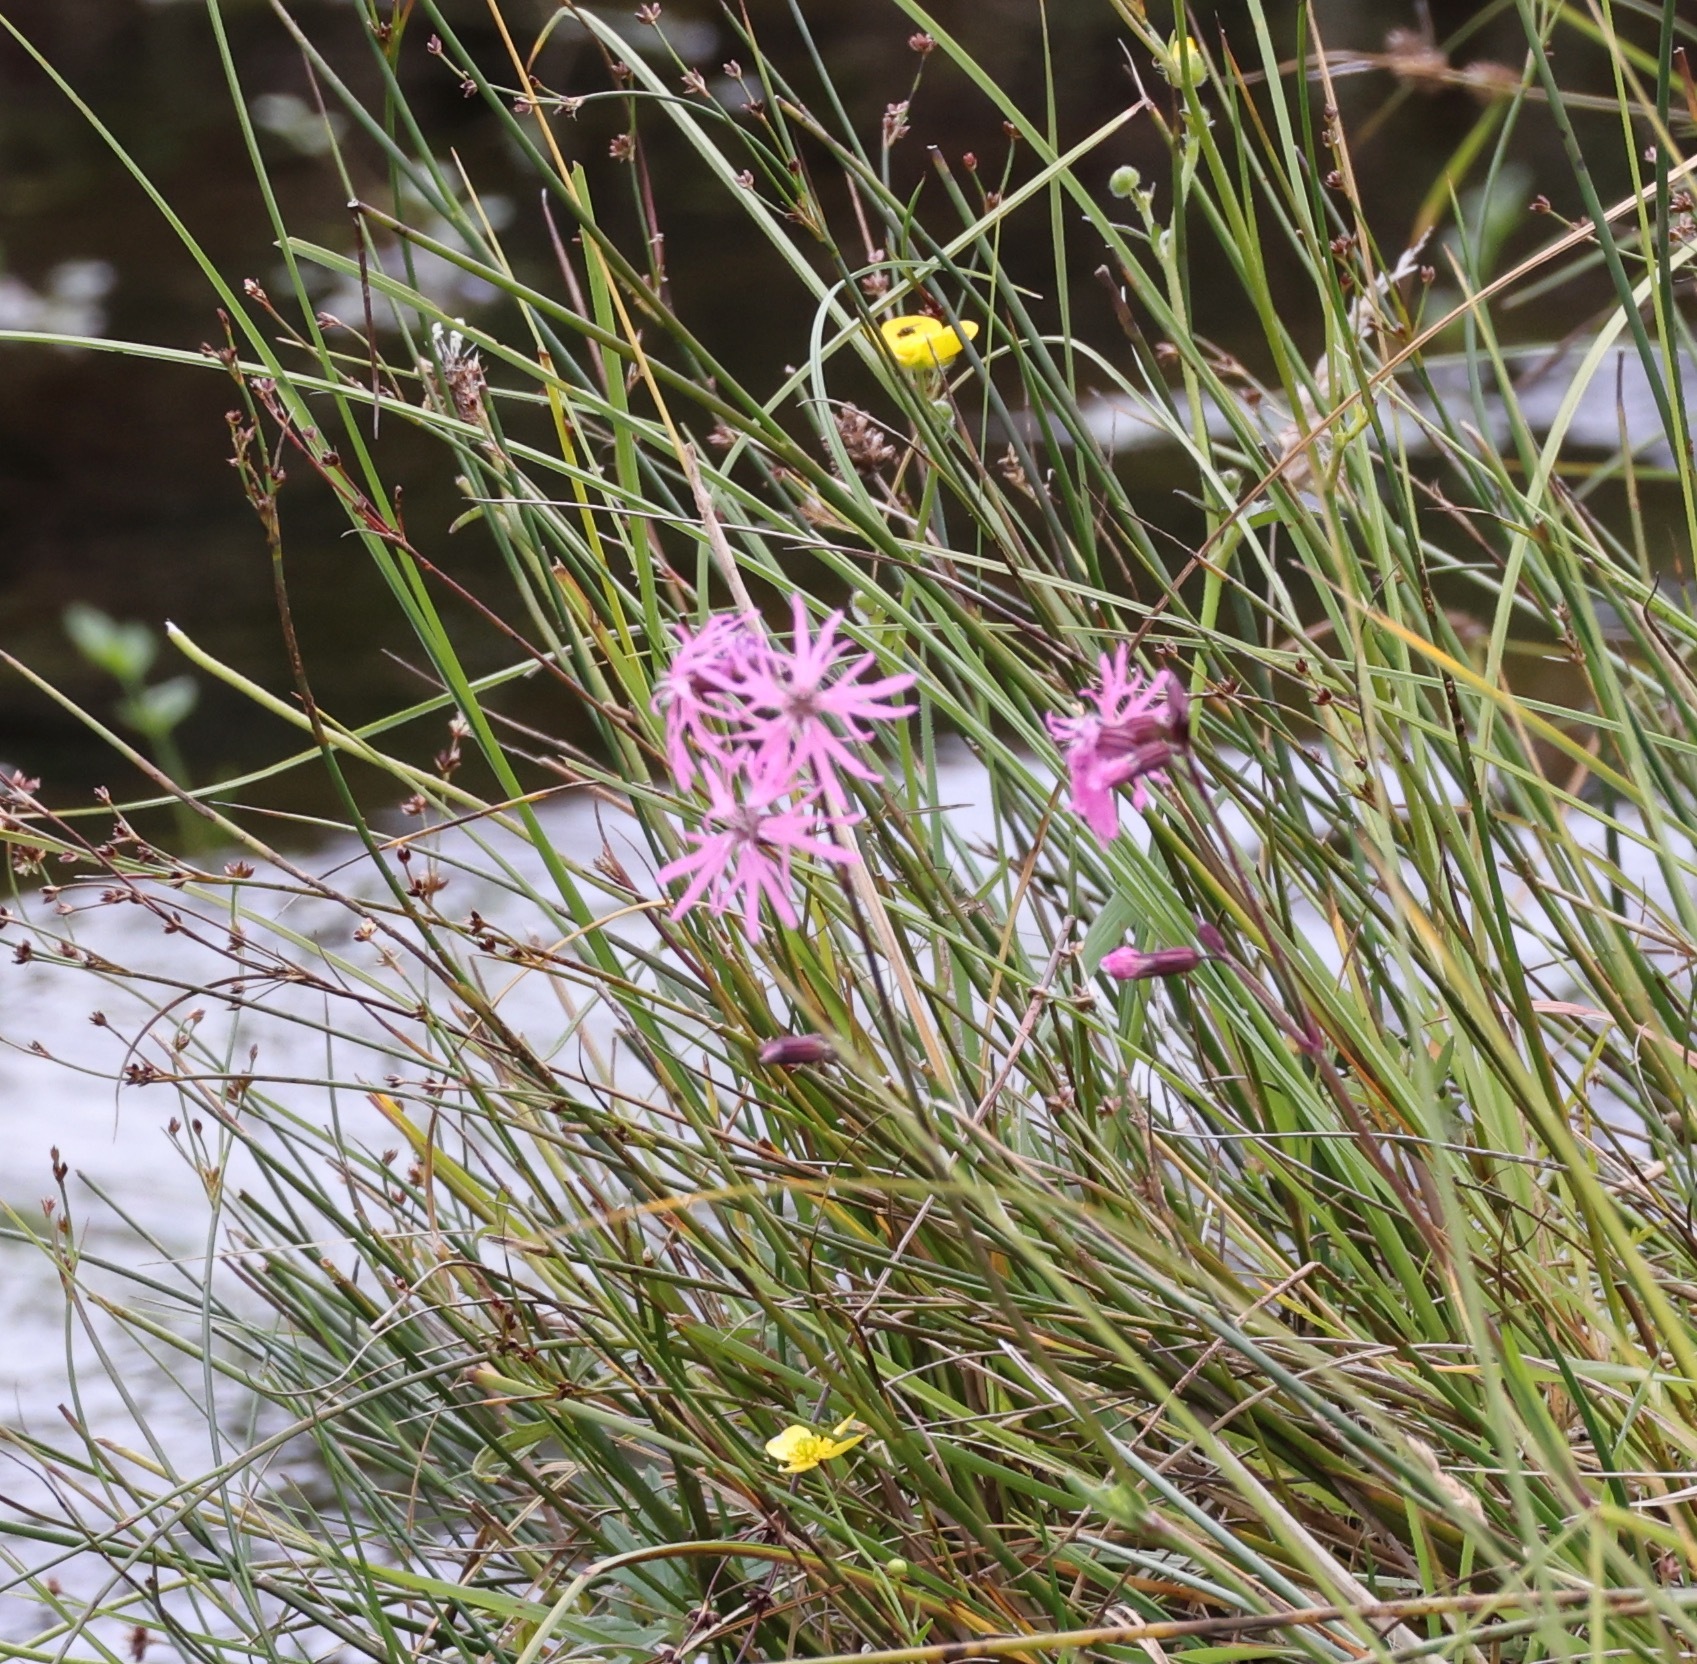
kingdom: Plantae
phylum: Tracheophyta
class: Magnoliopsida
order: Caryophyllales
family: Caryophyllaceae
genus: Silene
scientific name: Silene flos-cuculi
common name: Ragged-robin
